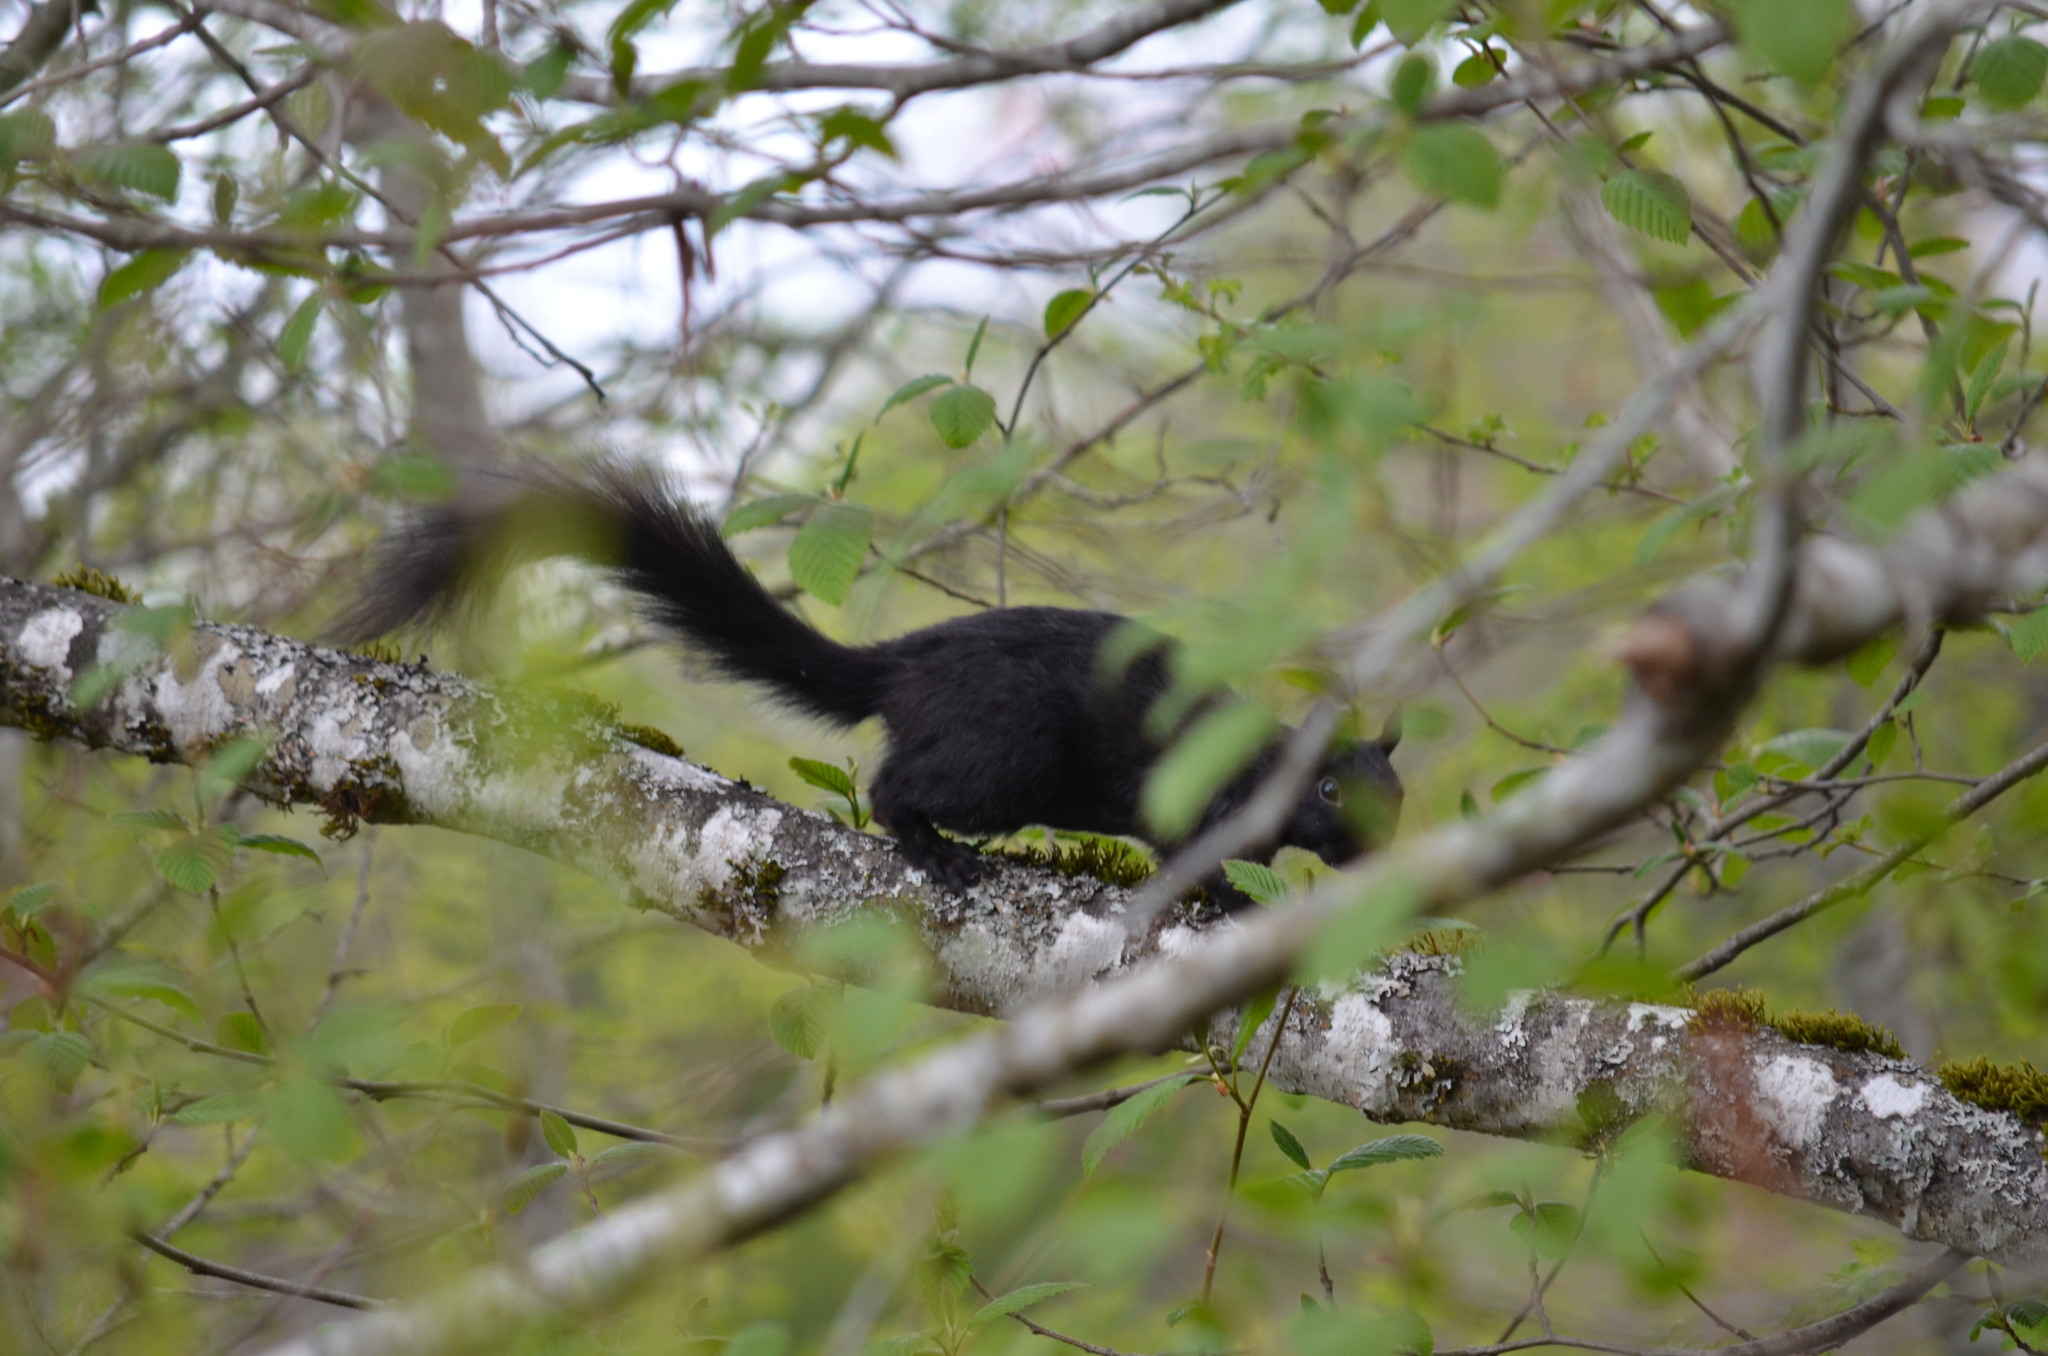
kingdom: Animalia
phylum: Chordata
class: Mammalia
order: Rodentia
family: Sciuridae
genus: Sciurus
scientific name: Sciurus carolinensis
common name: Eastern gray squirrel
